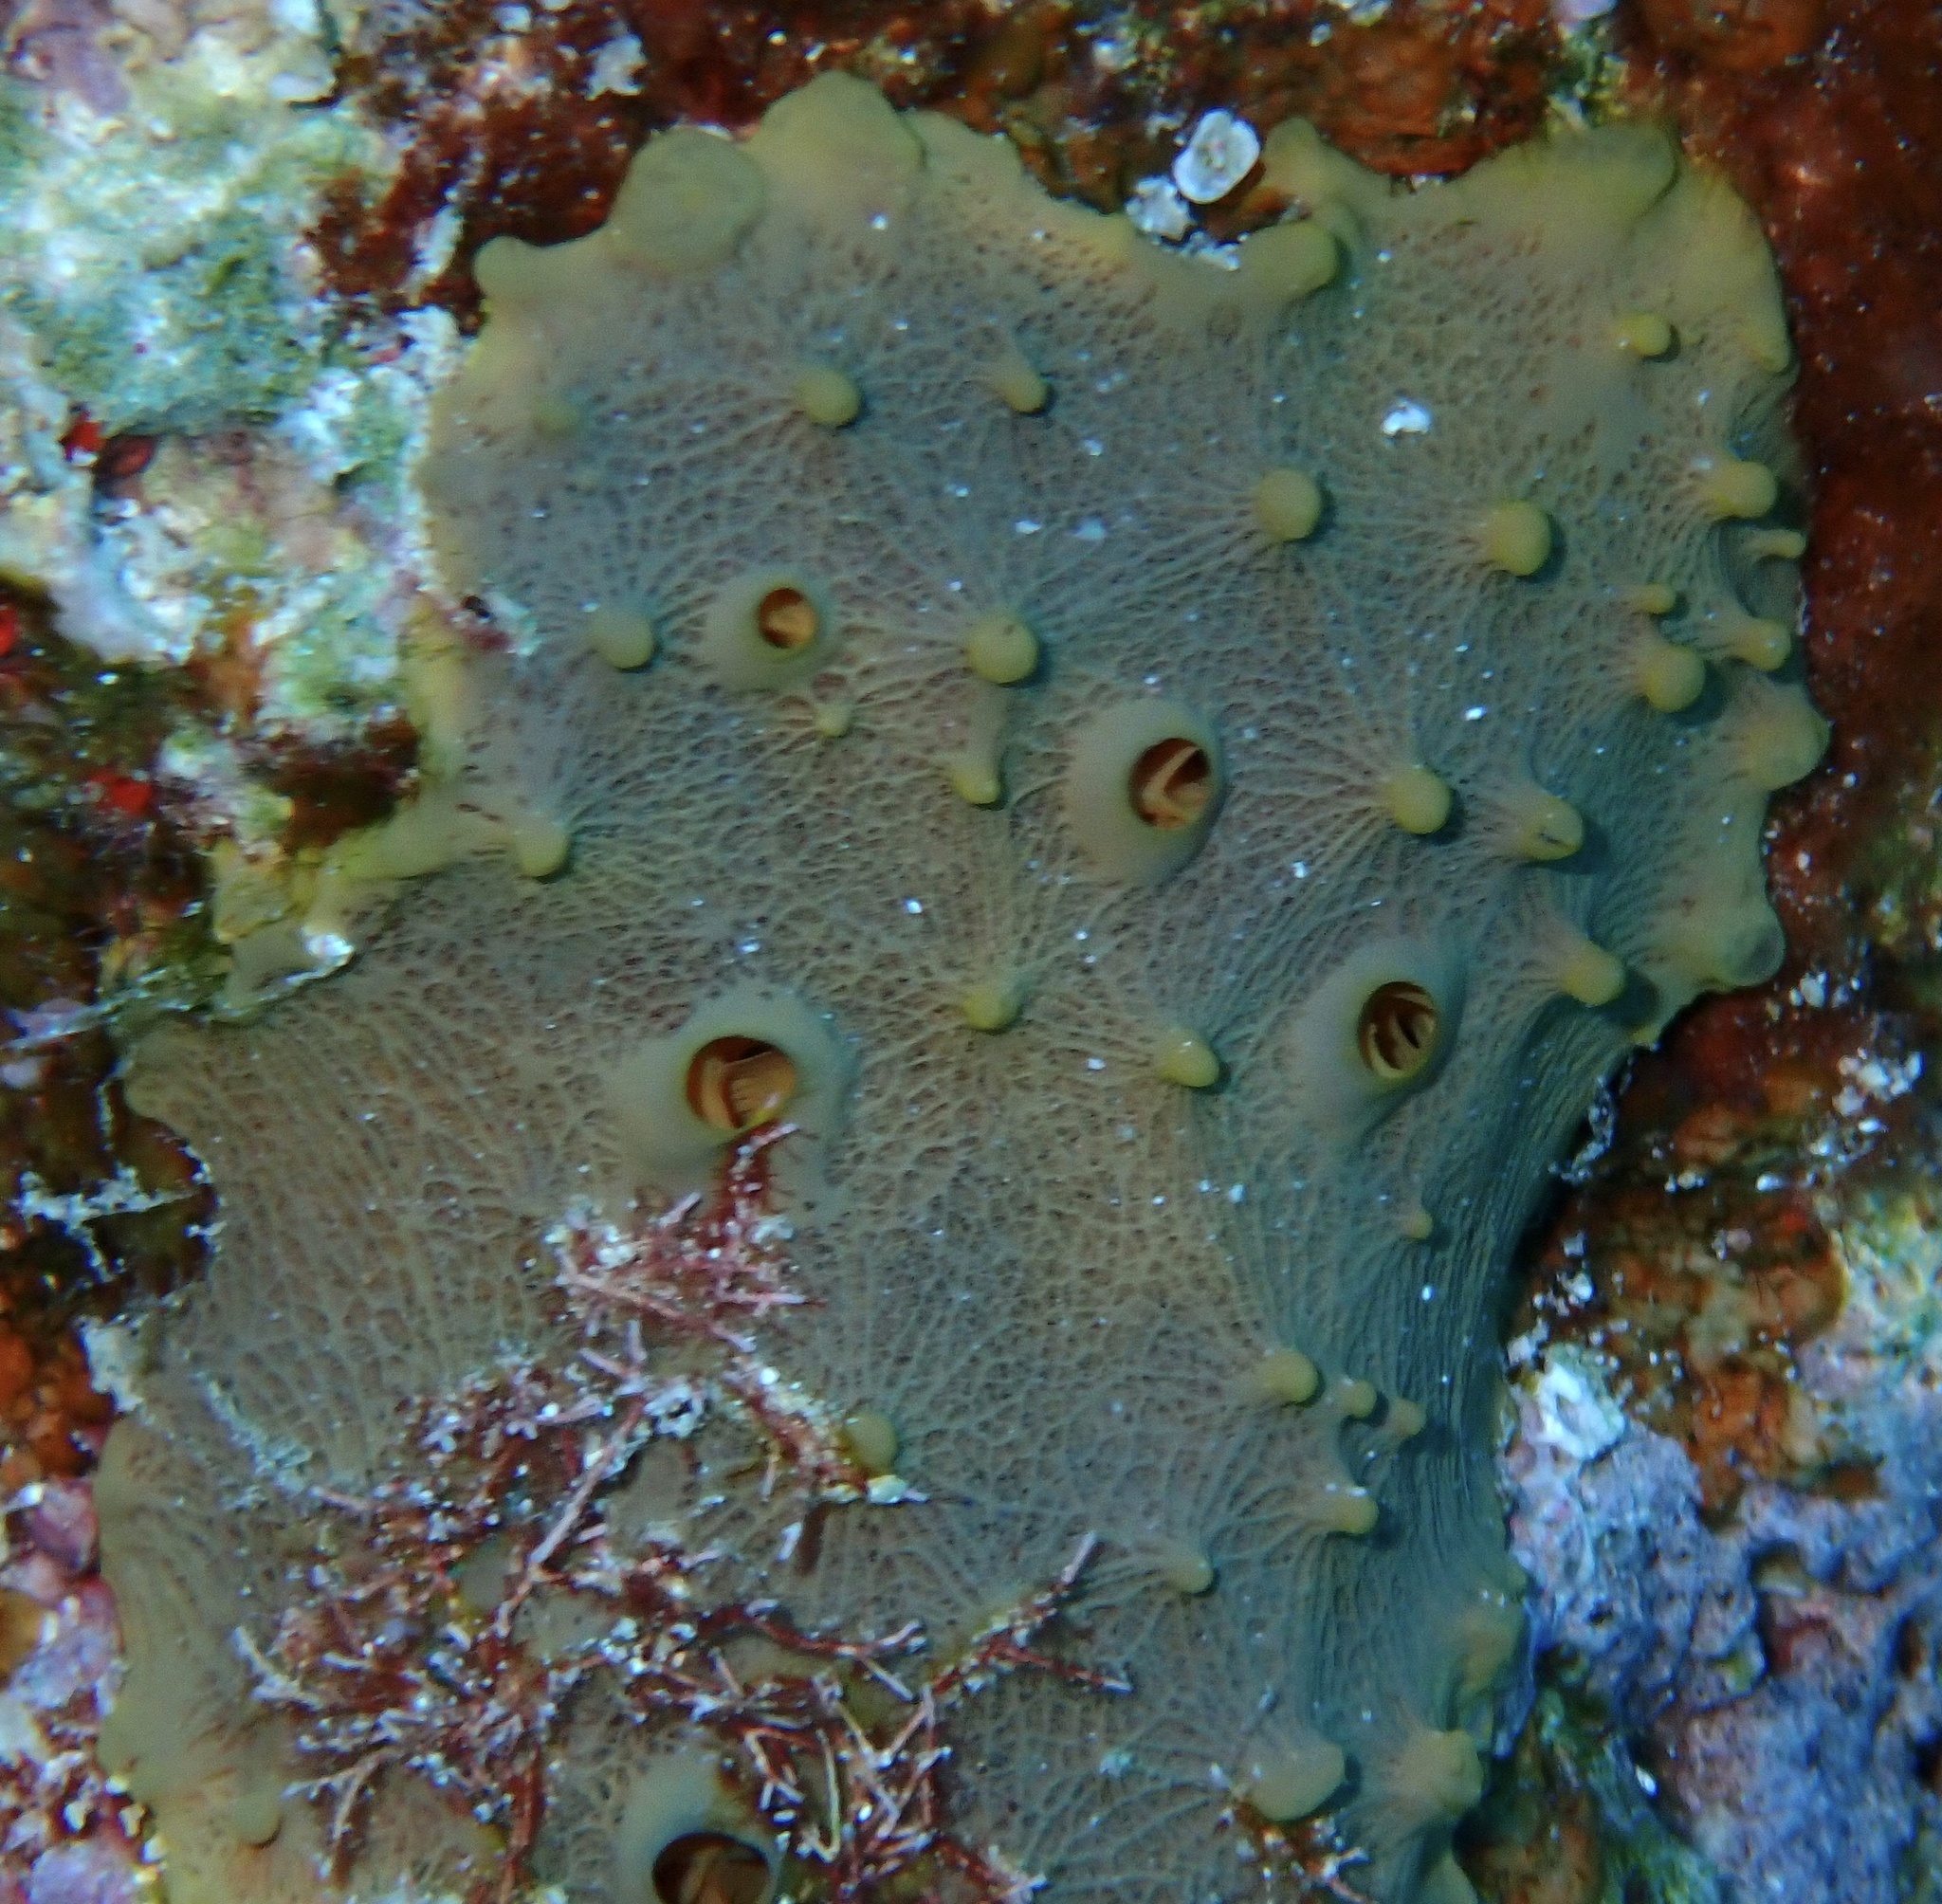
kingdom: Animalia
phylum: Porifera
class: Demospongiae
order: Verongiida
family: Aplysinellidae
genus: Suberea
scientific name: Suberea mollis
